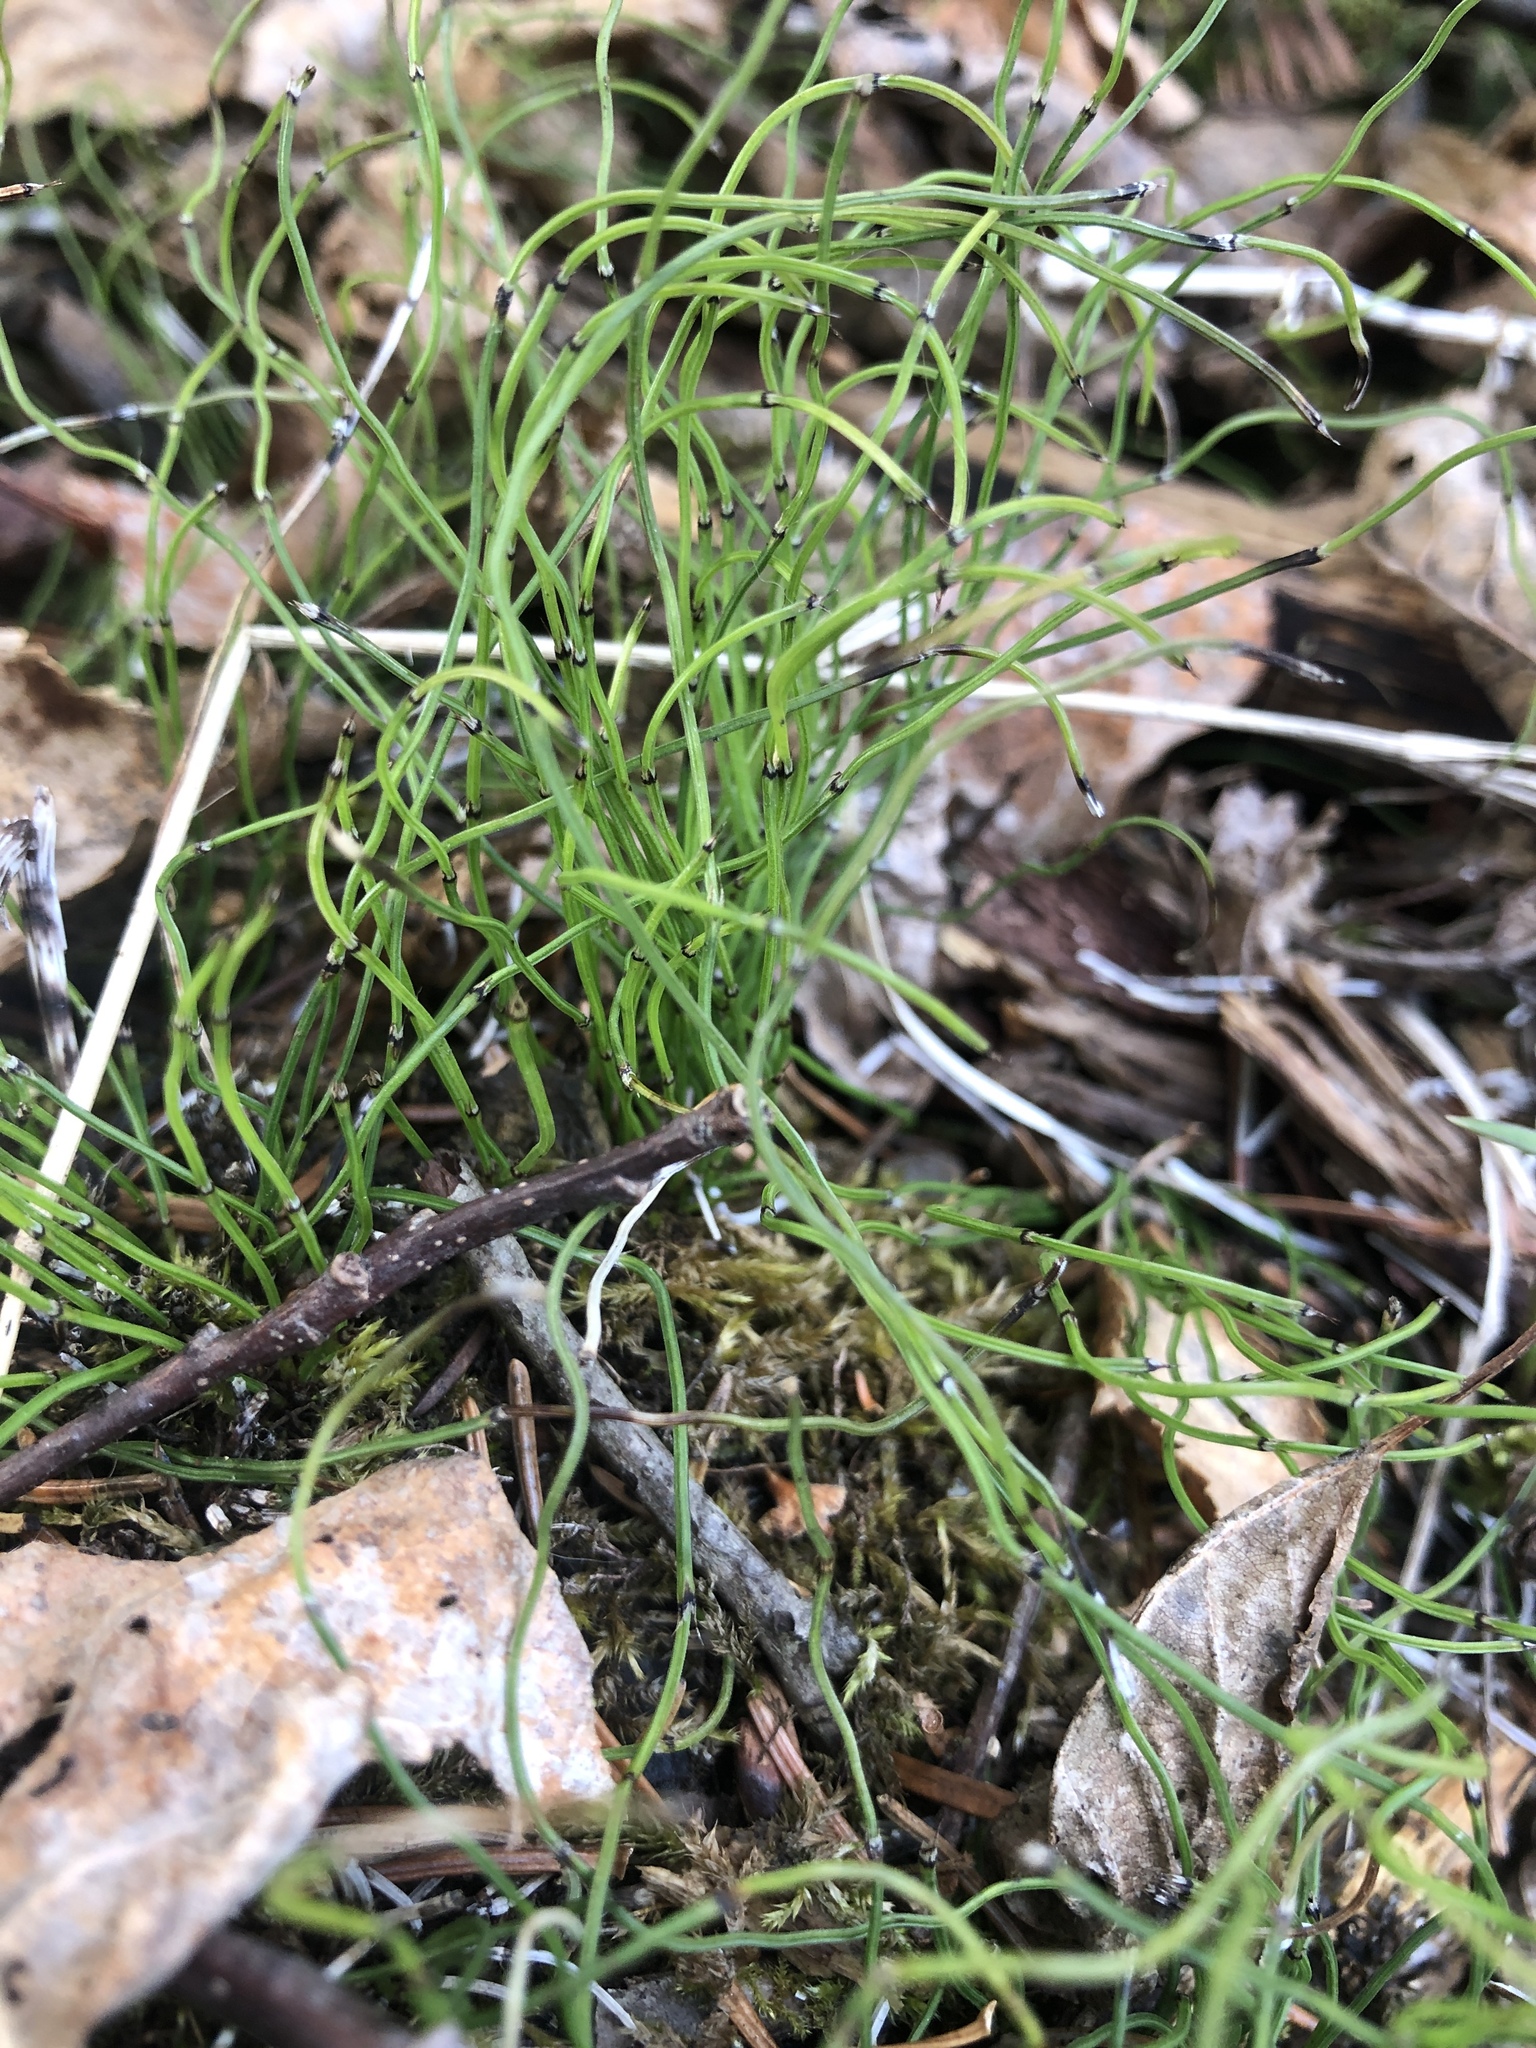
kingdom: Plantae
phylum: Tracheophyta
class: Polypodiopsida
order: Equisetales
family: Equisetaceae
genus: Equisetum
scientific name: Equisetum scirpoides
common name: Delicate horsetail
